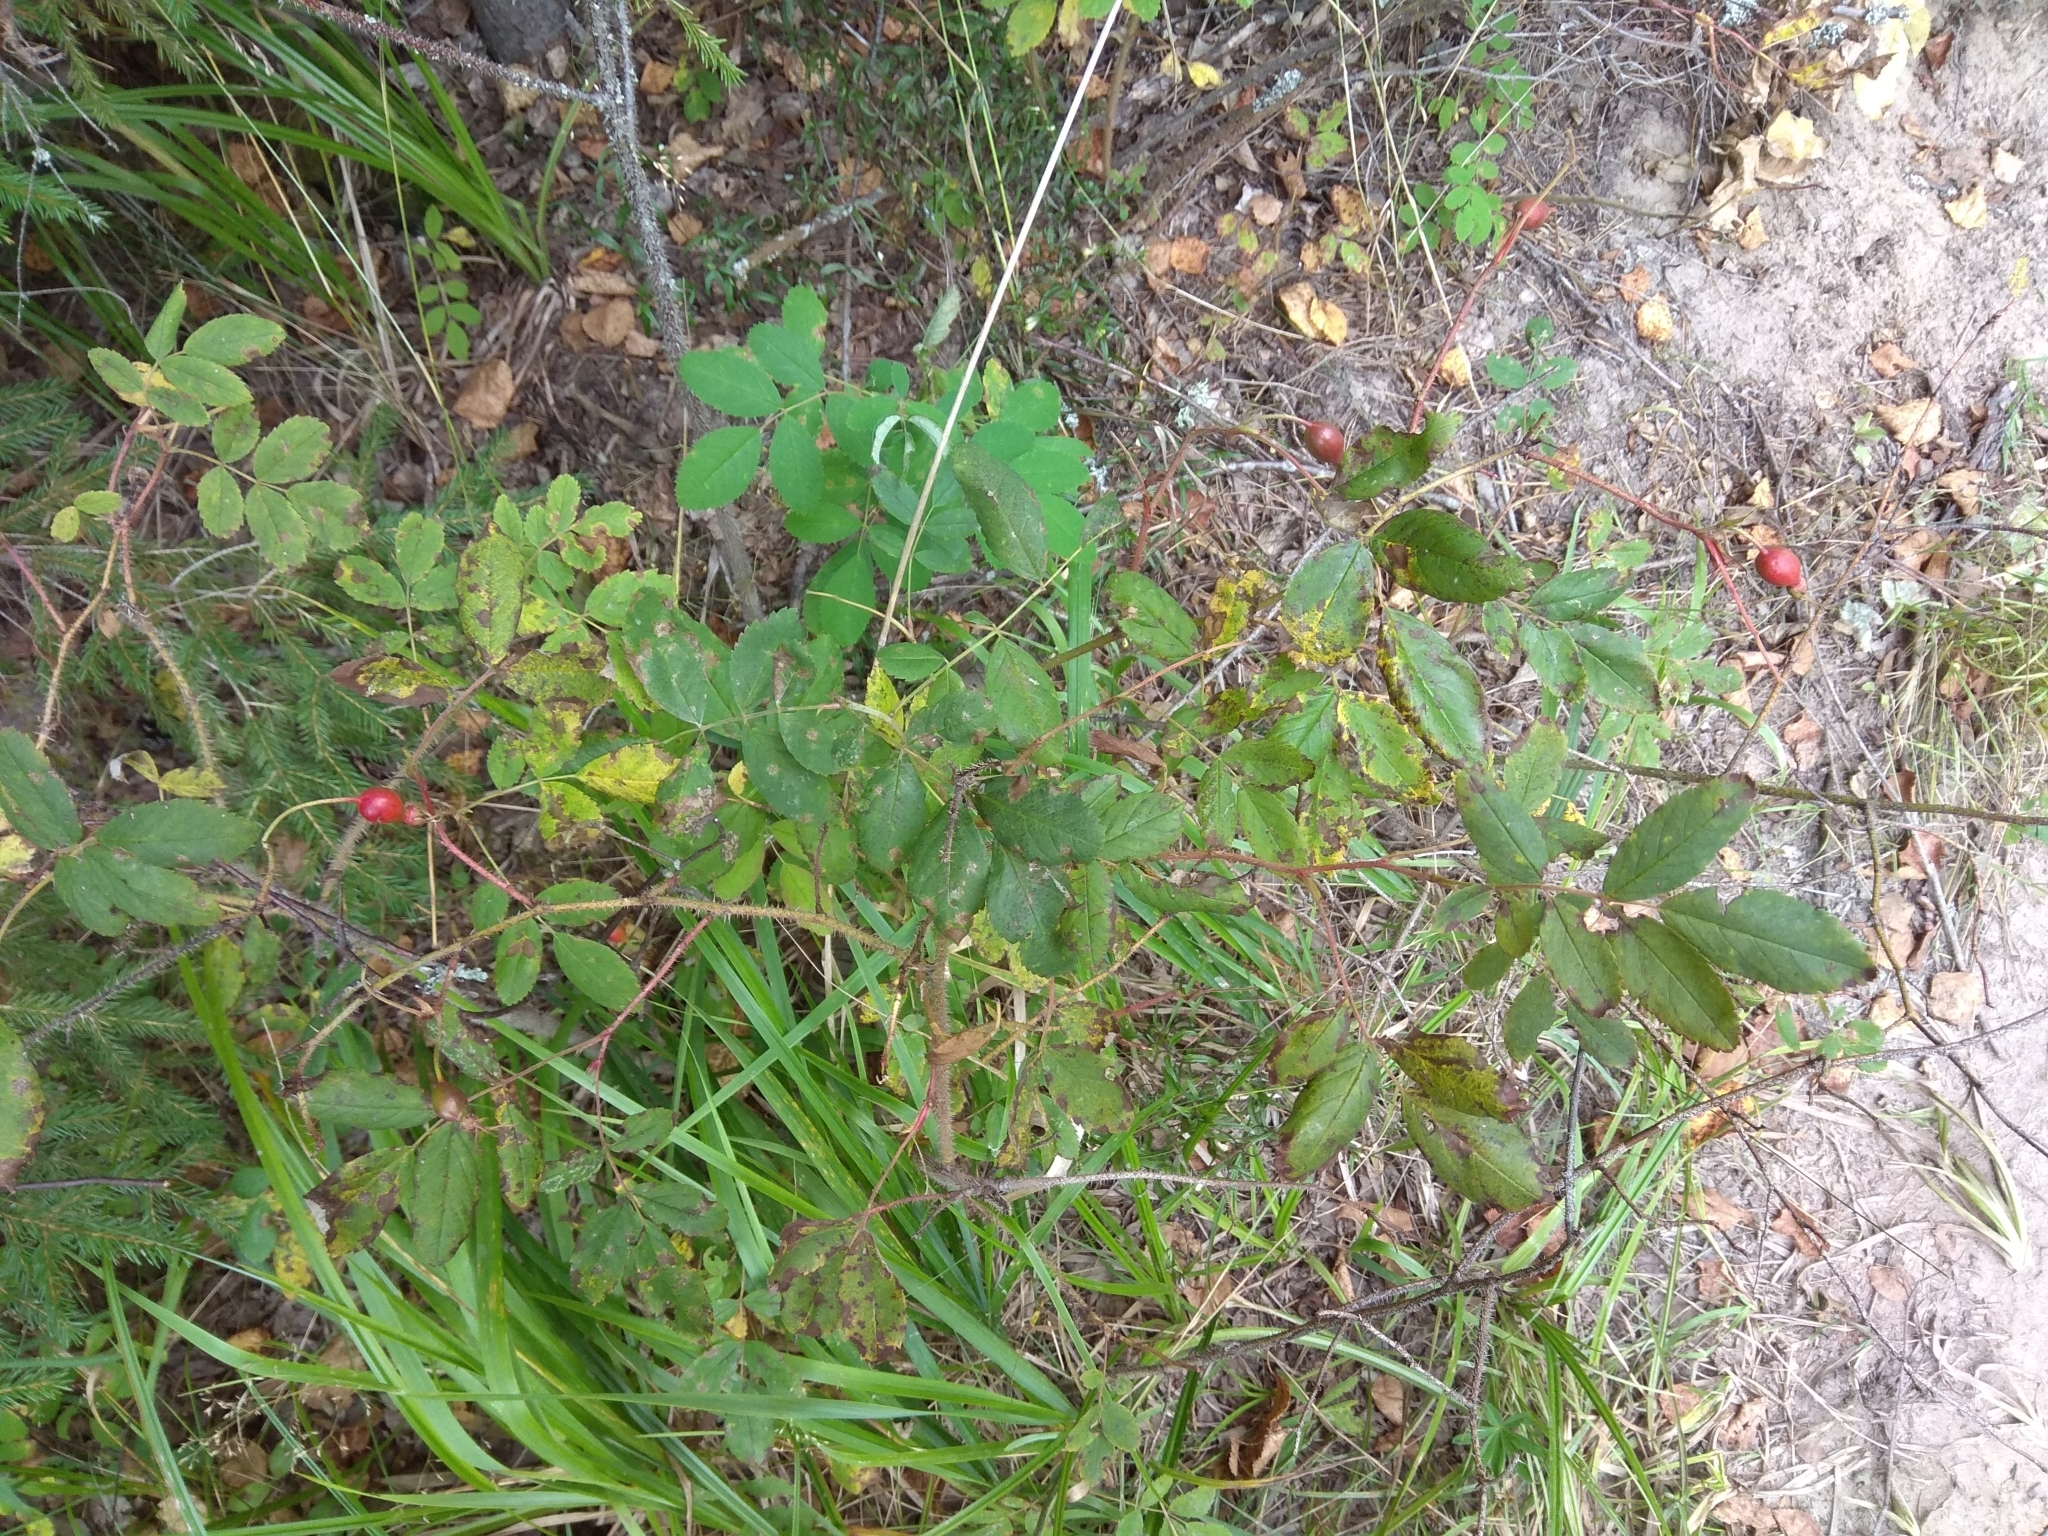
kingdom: Plantae
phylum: Tracheophyta
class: Magnoliopsida
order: Rosales
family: Rosaceae
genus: Rosa
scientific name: Rosa acicularis
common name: Prickly rose
